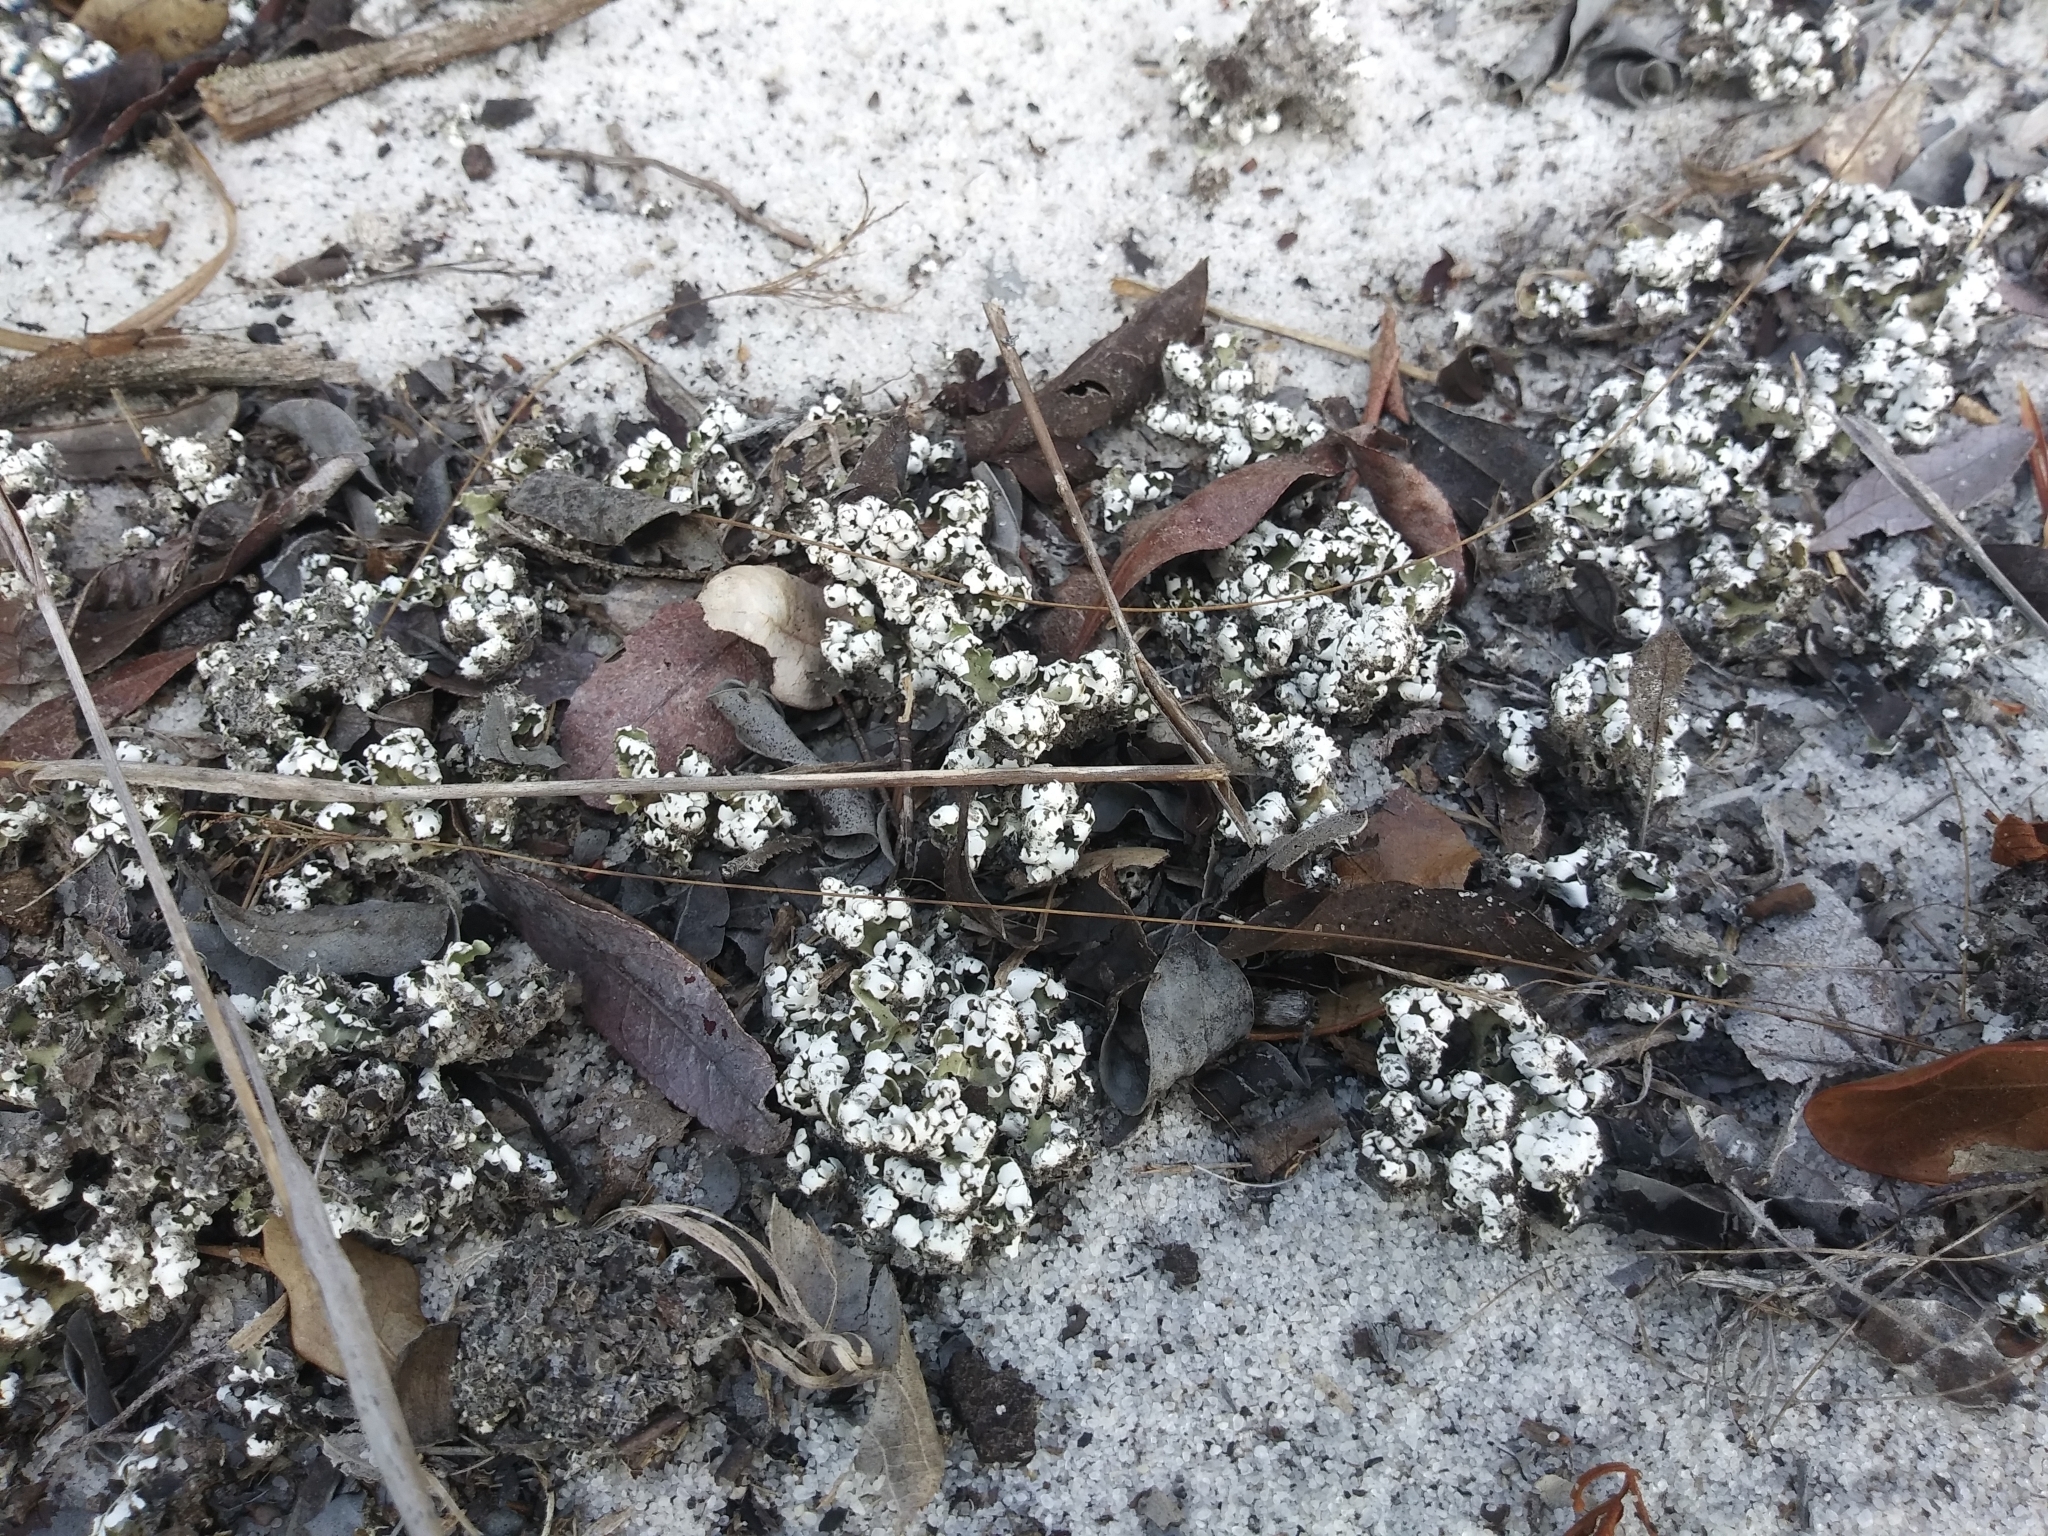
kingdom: Fungi
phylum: Ascomycota
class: Lecanoromycetes
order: Lecanorales
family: Cladoniaceae
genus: Cladonia
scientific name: Cladonia prostrata
